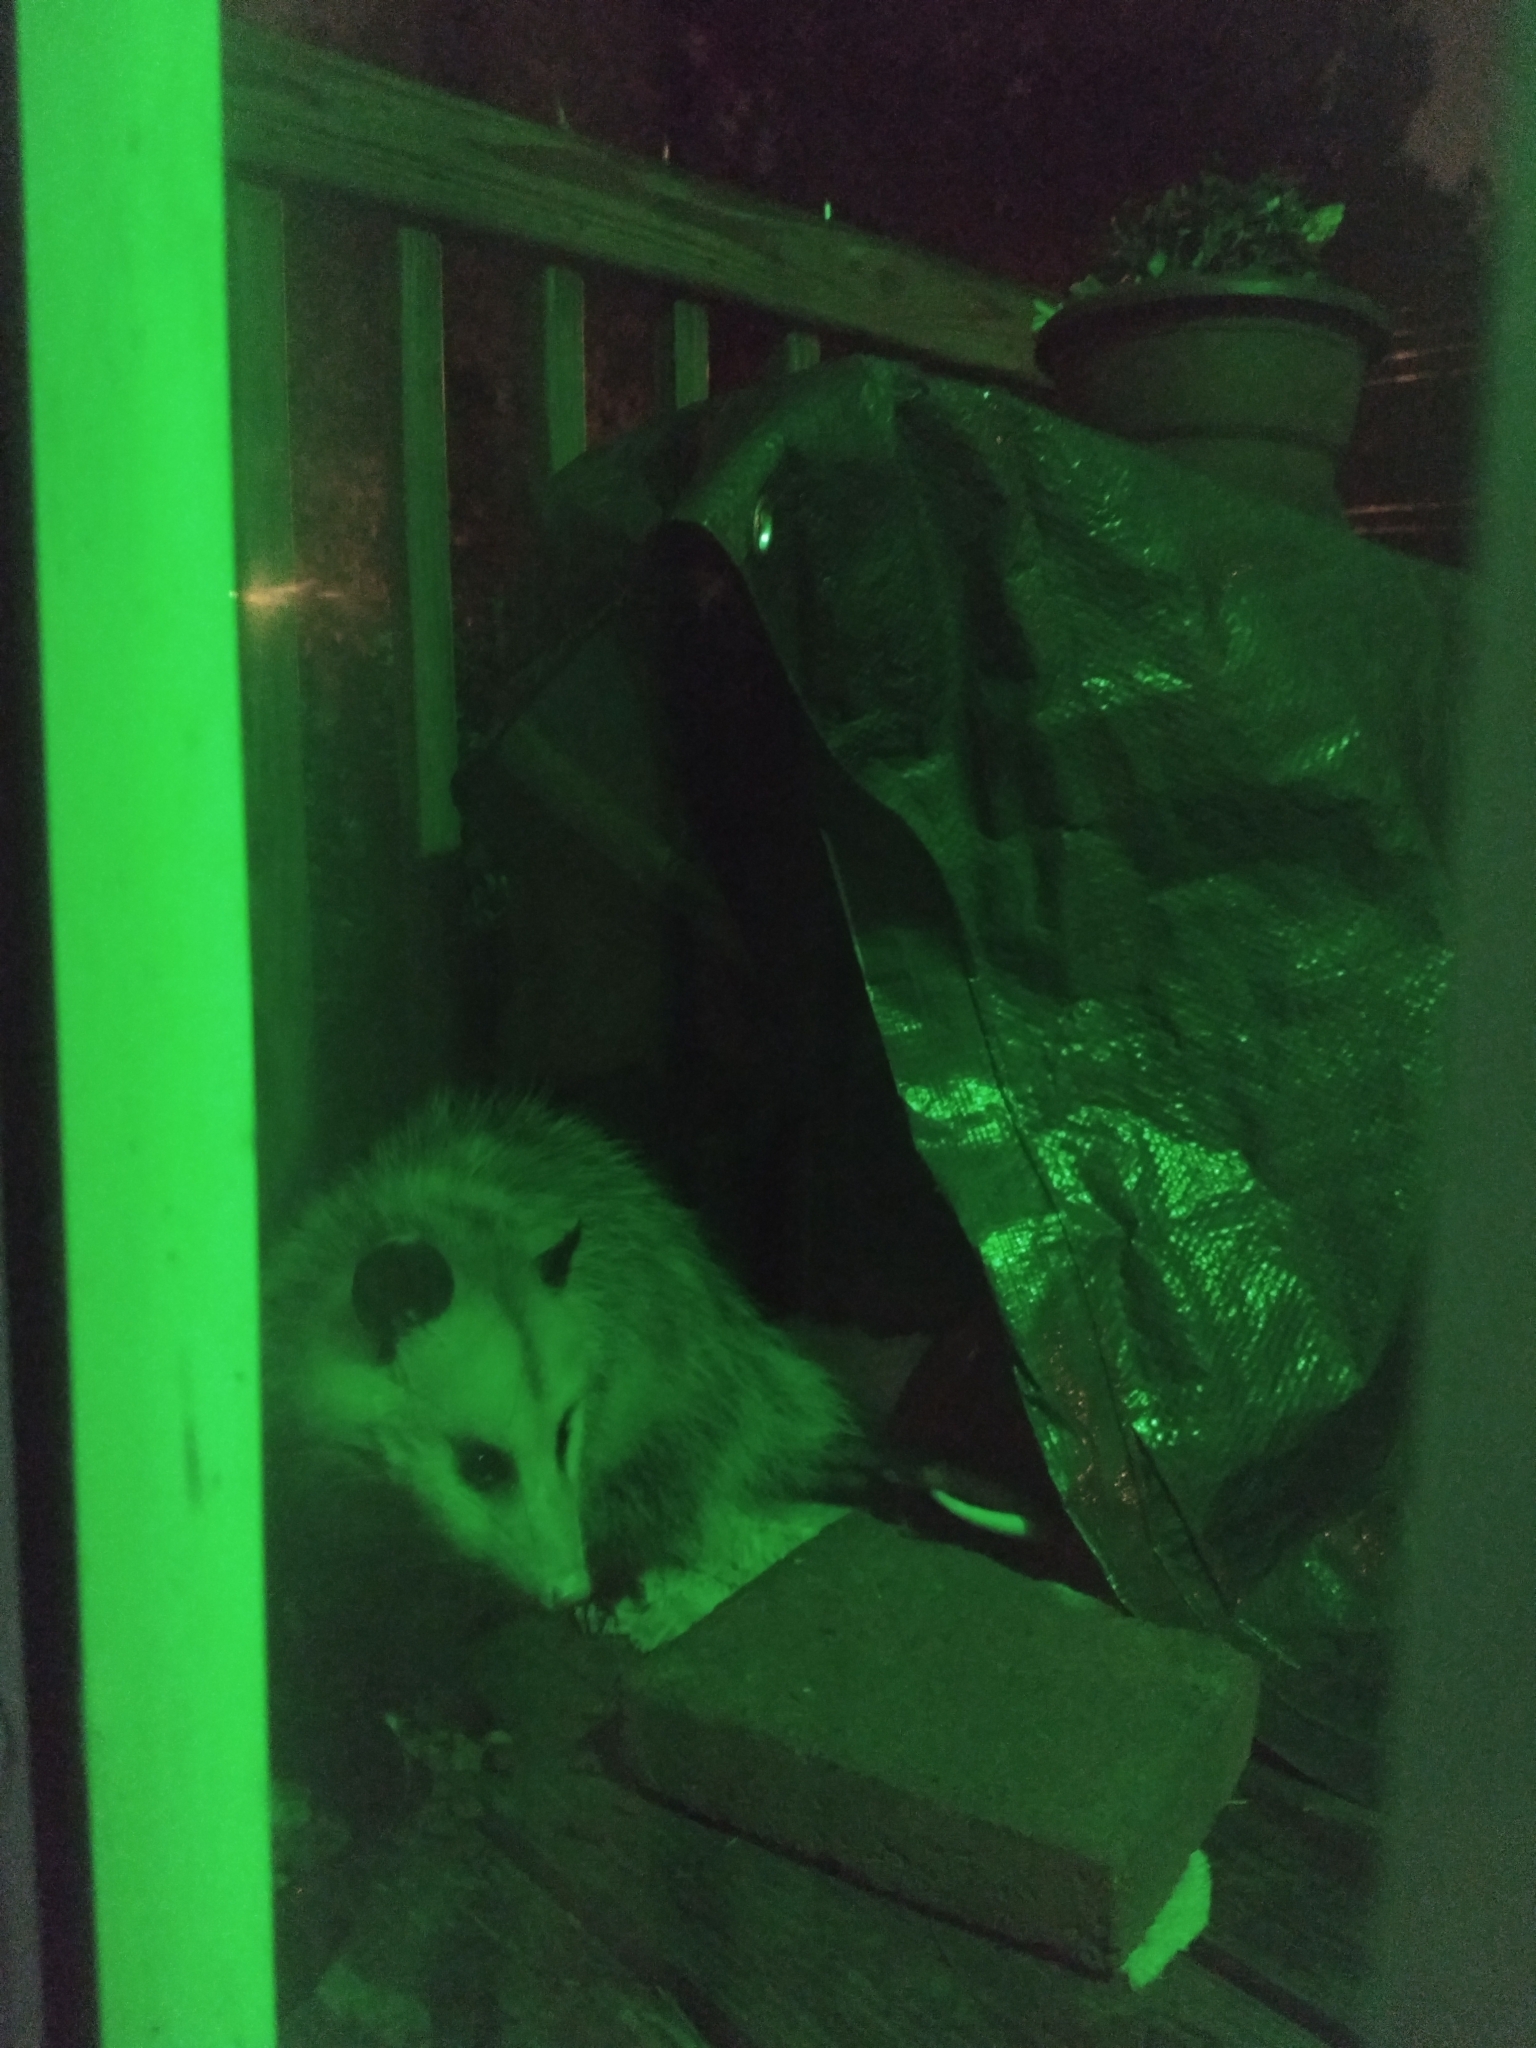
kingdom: Animalia
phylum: Chordata
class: Mammalia
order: Didelphimorphia
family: Didelphidae
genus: Didelphis
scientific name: Didelphis virginiana
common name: Virginia opossum
